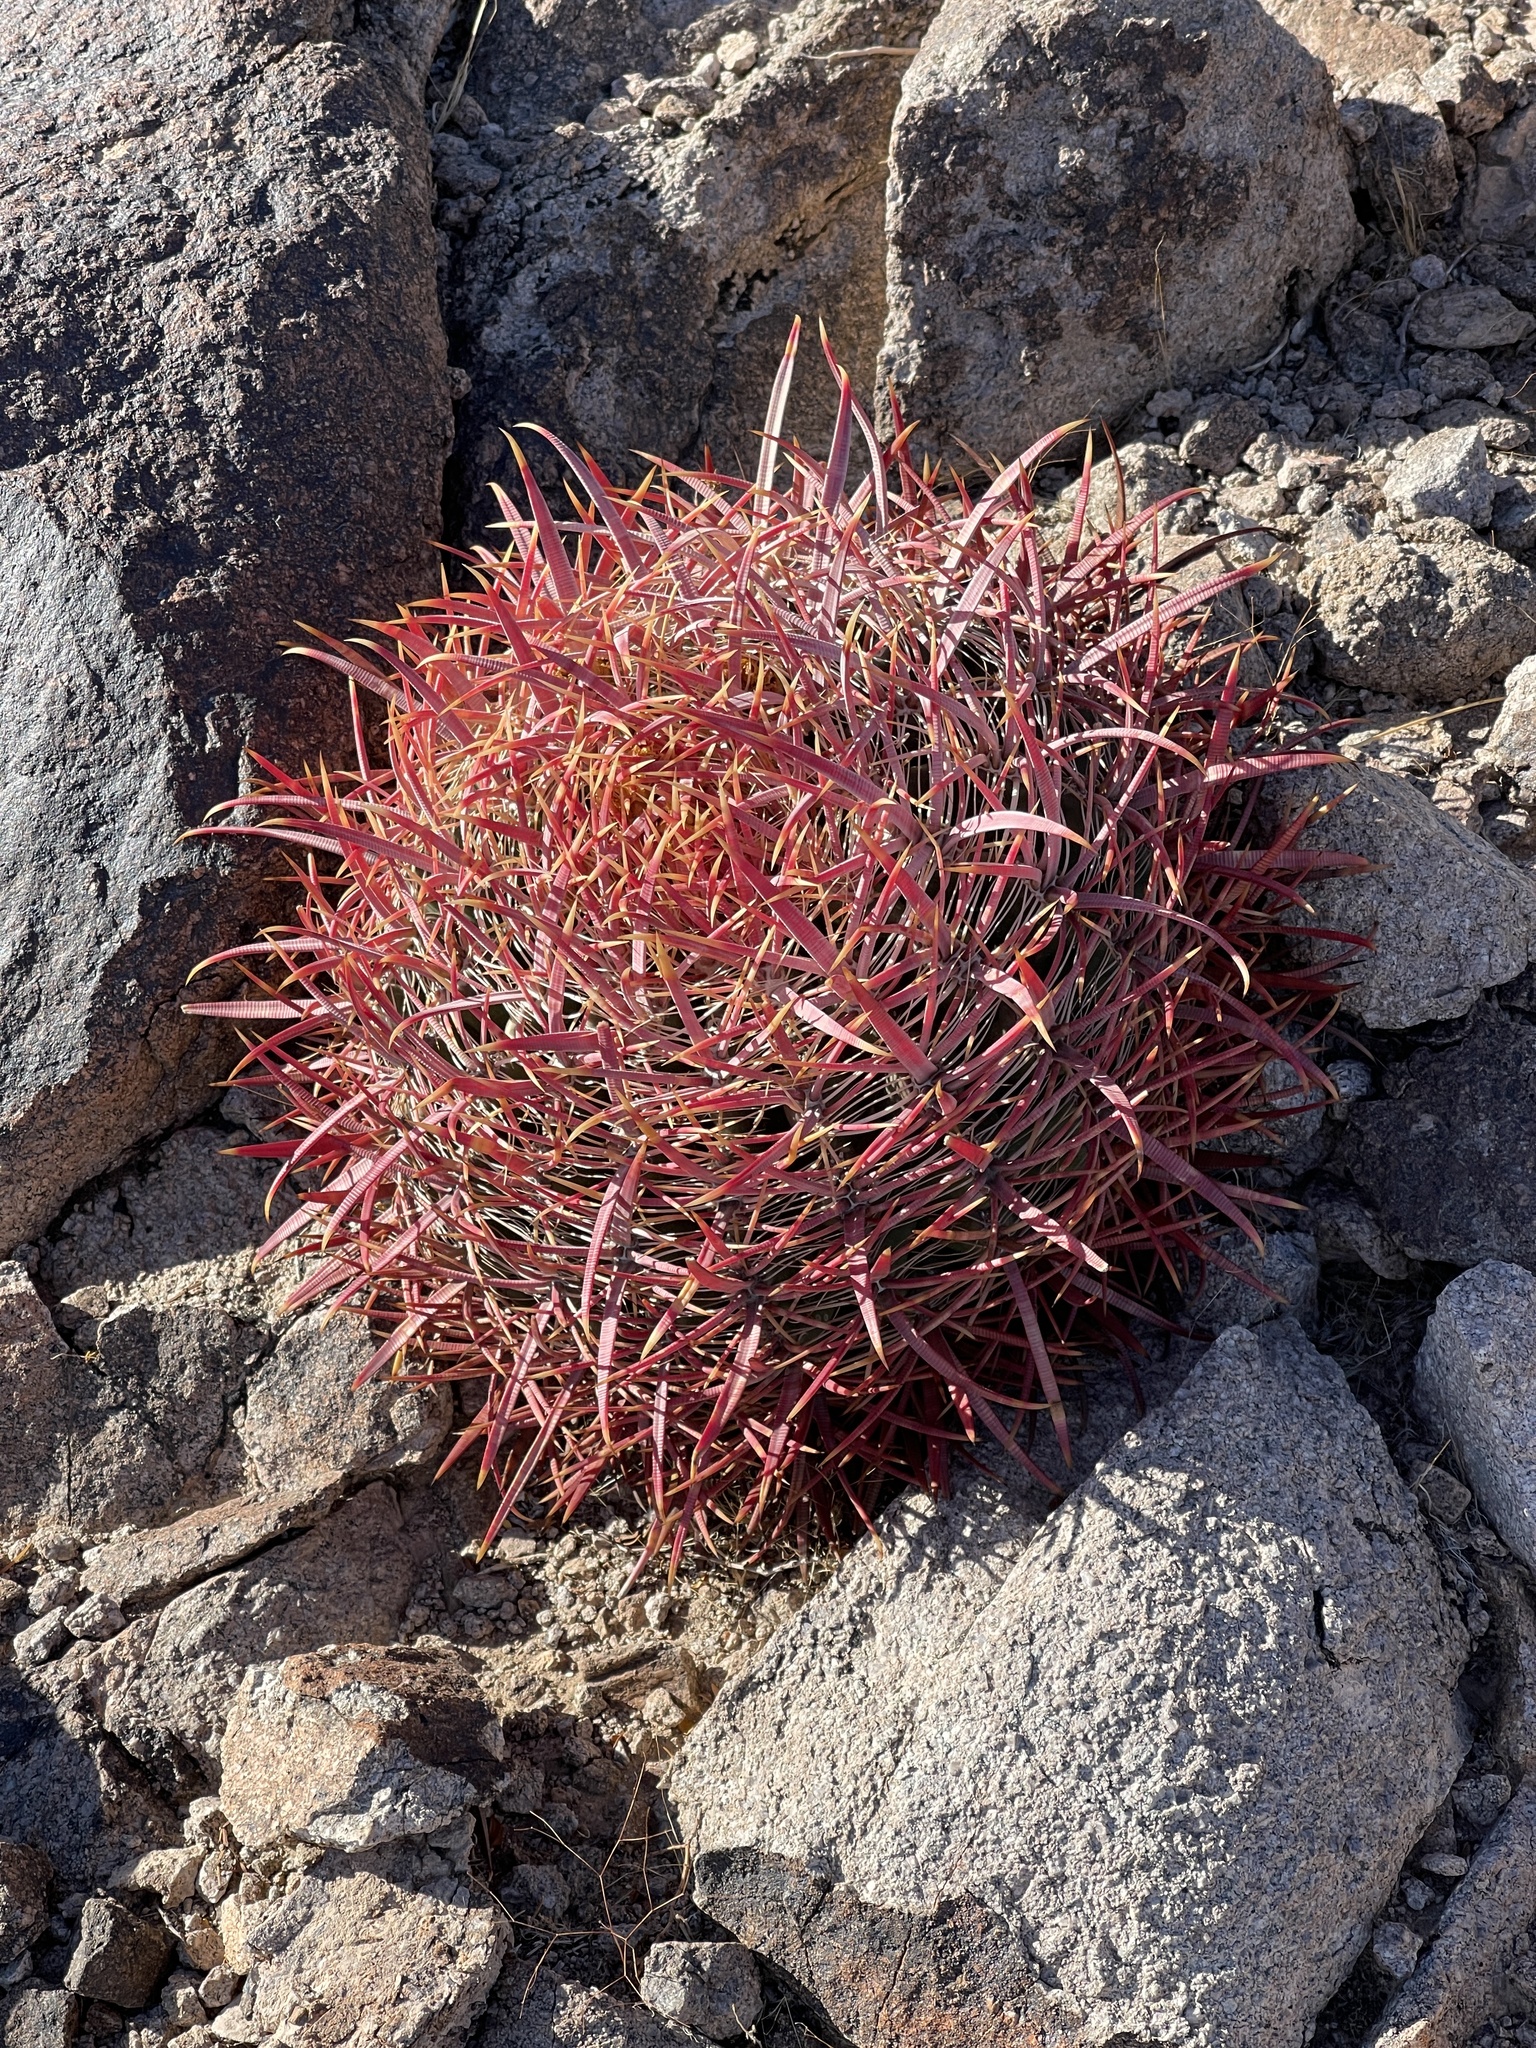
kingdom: Plantae
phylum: Tracheophyta
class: Magnoliopsida
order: Caryophyllales
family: Cactaceae
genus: Ferocactus
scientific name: Ferocactus cylindraceus
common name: California barrel cactus
